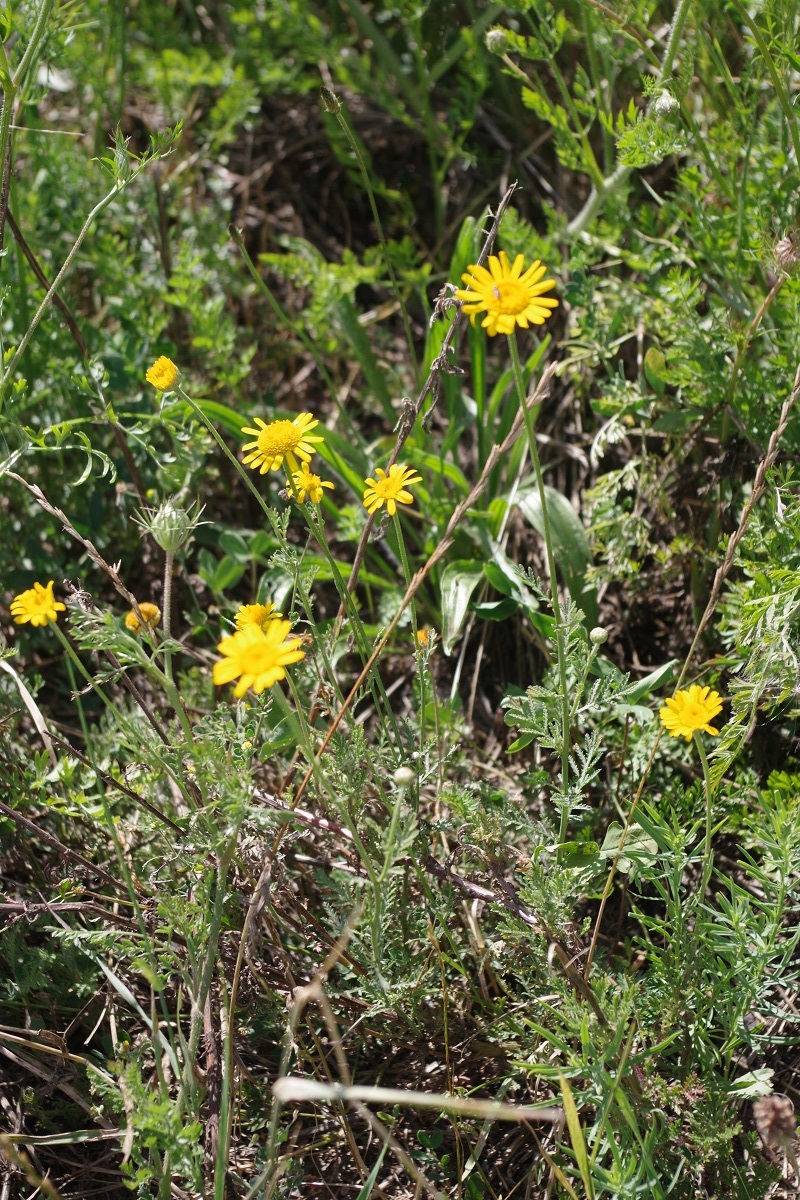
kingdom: Plantae
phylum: Tracheophyta
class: Magnoliopsida
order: Asterales
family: Asteraceae
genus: Cota
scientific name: Cota tinctoria
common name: Golden chamomile
